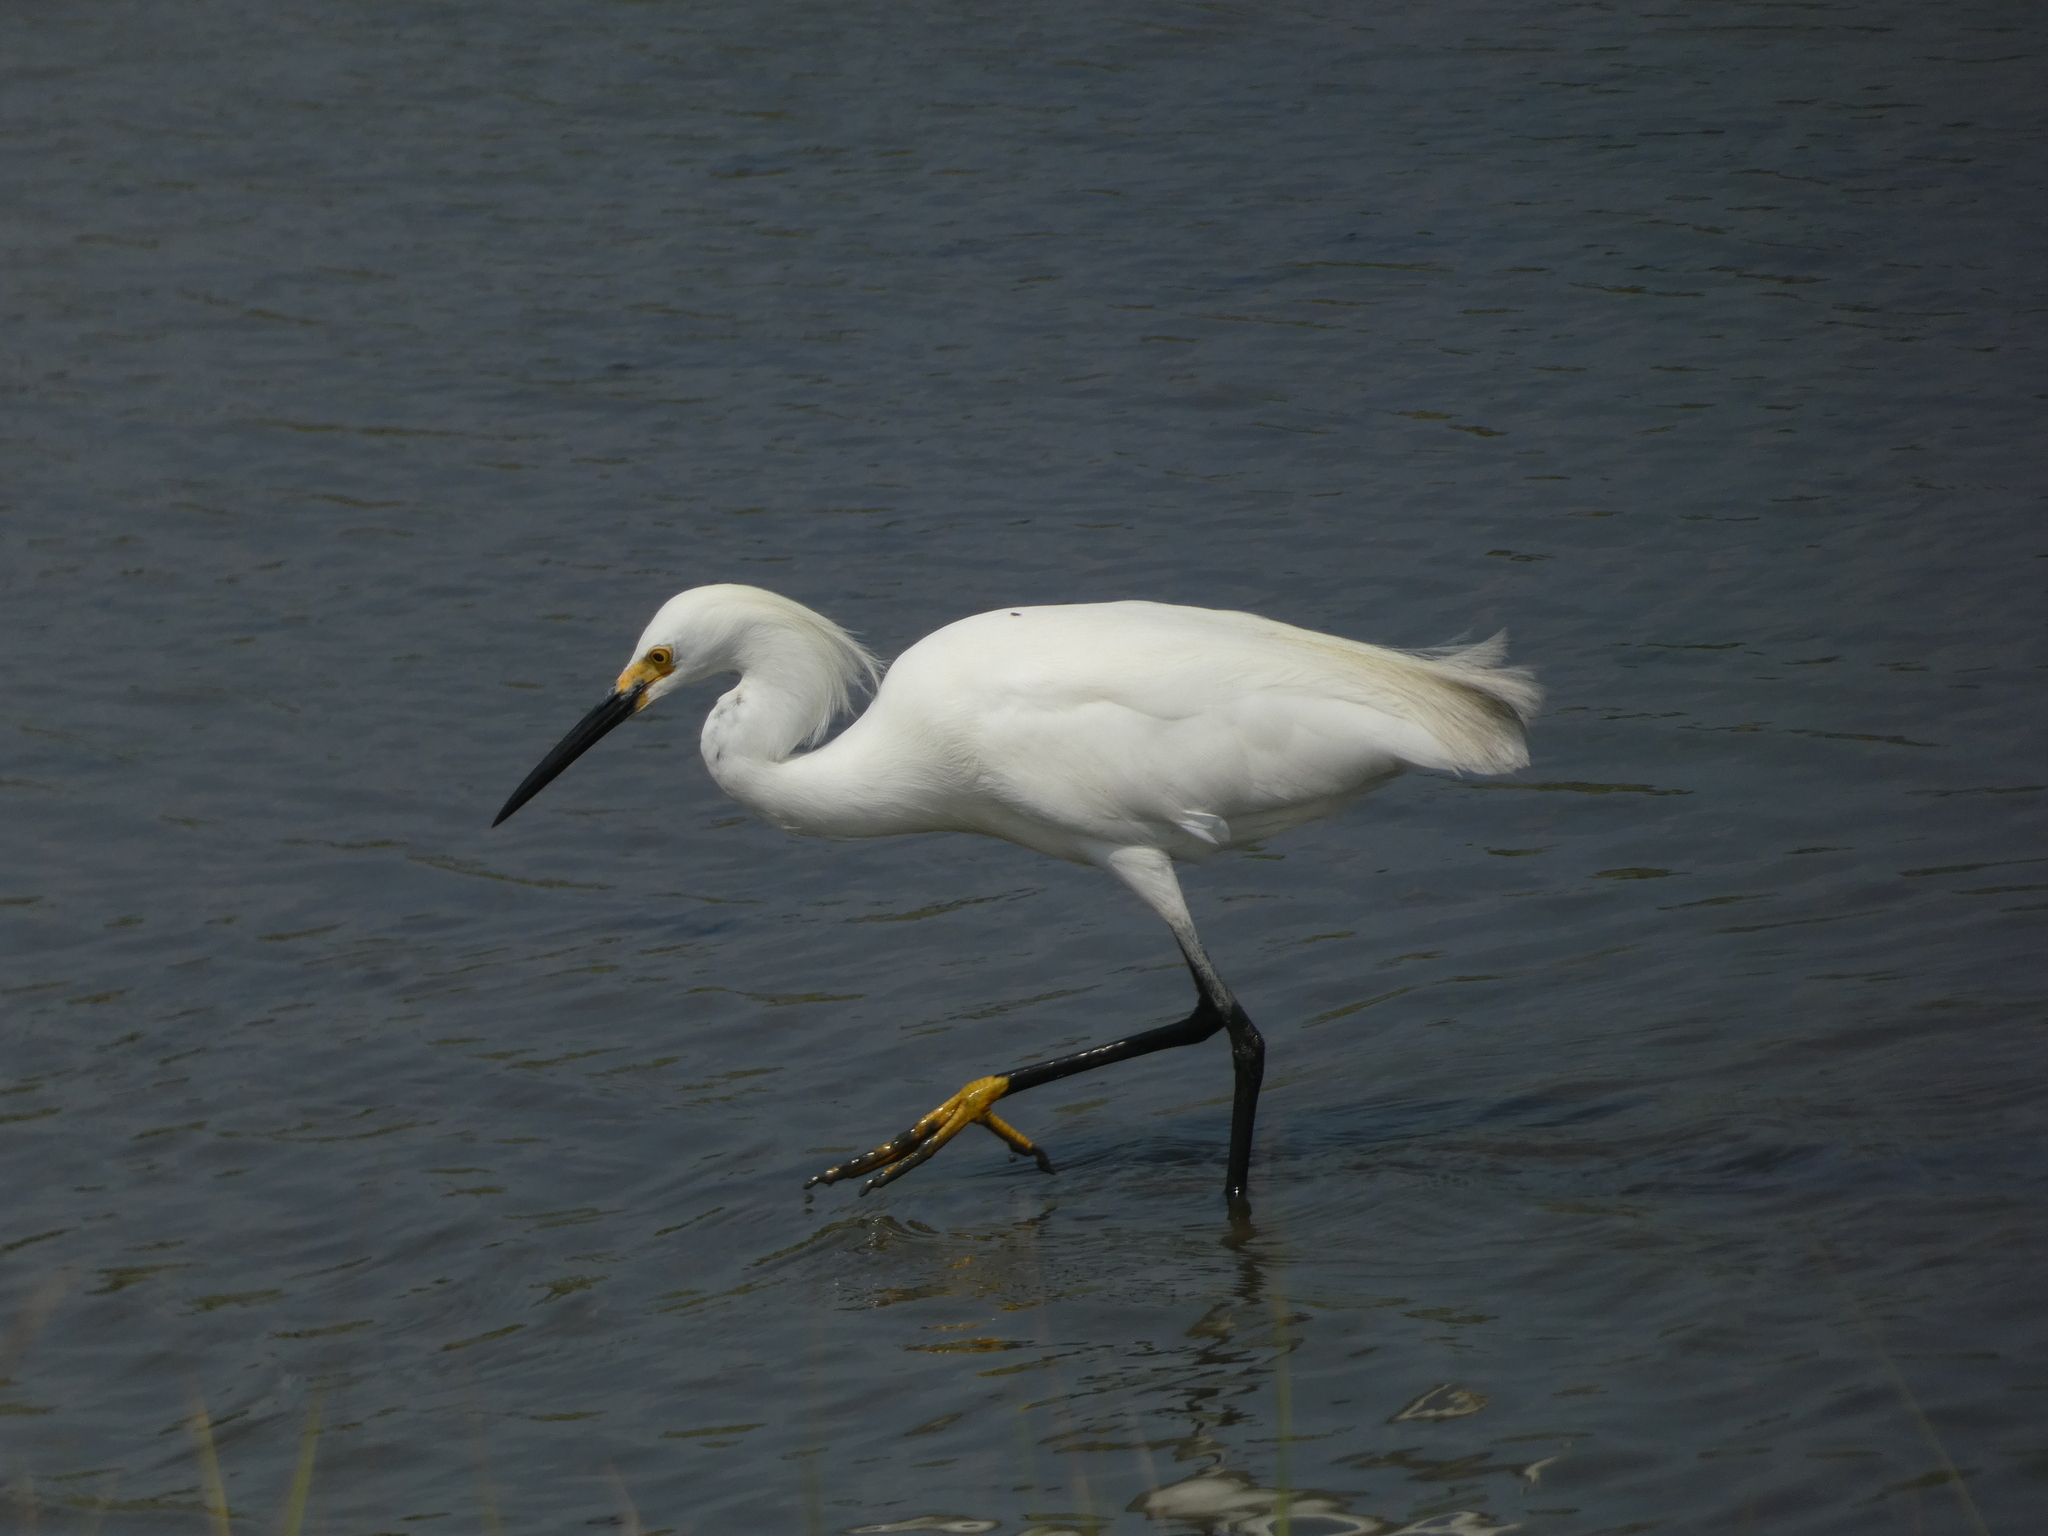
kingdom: Animalia
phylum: Chordata
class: Aves
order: Pelecaniformes
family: Ardeidae
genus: Egretta
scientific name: Egretta thula
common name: Snowy egret
